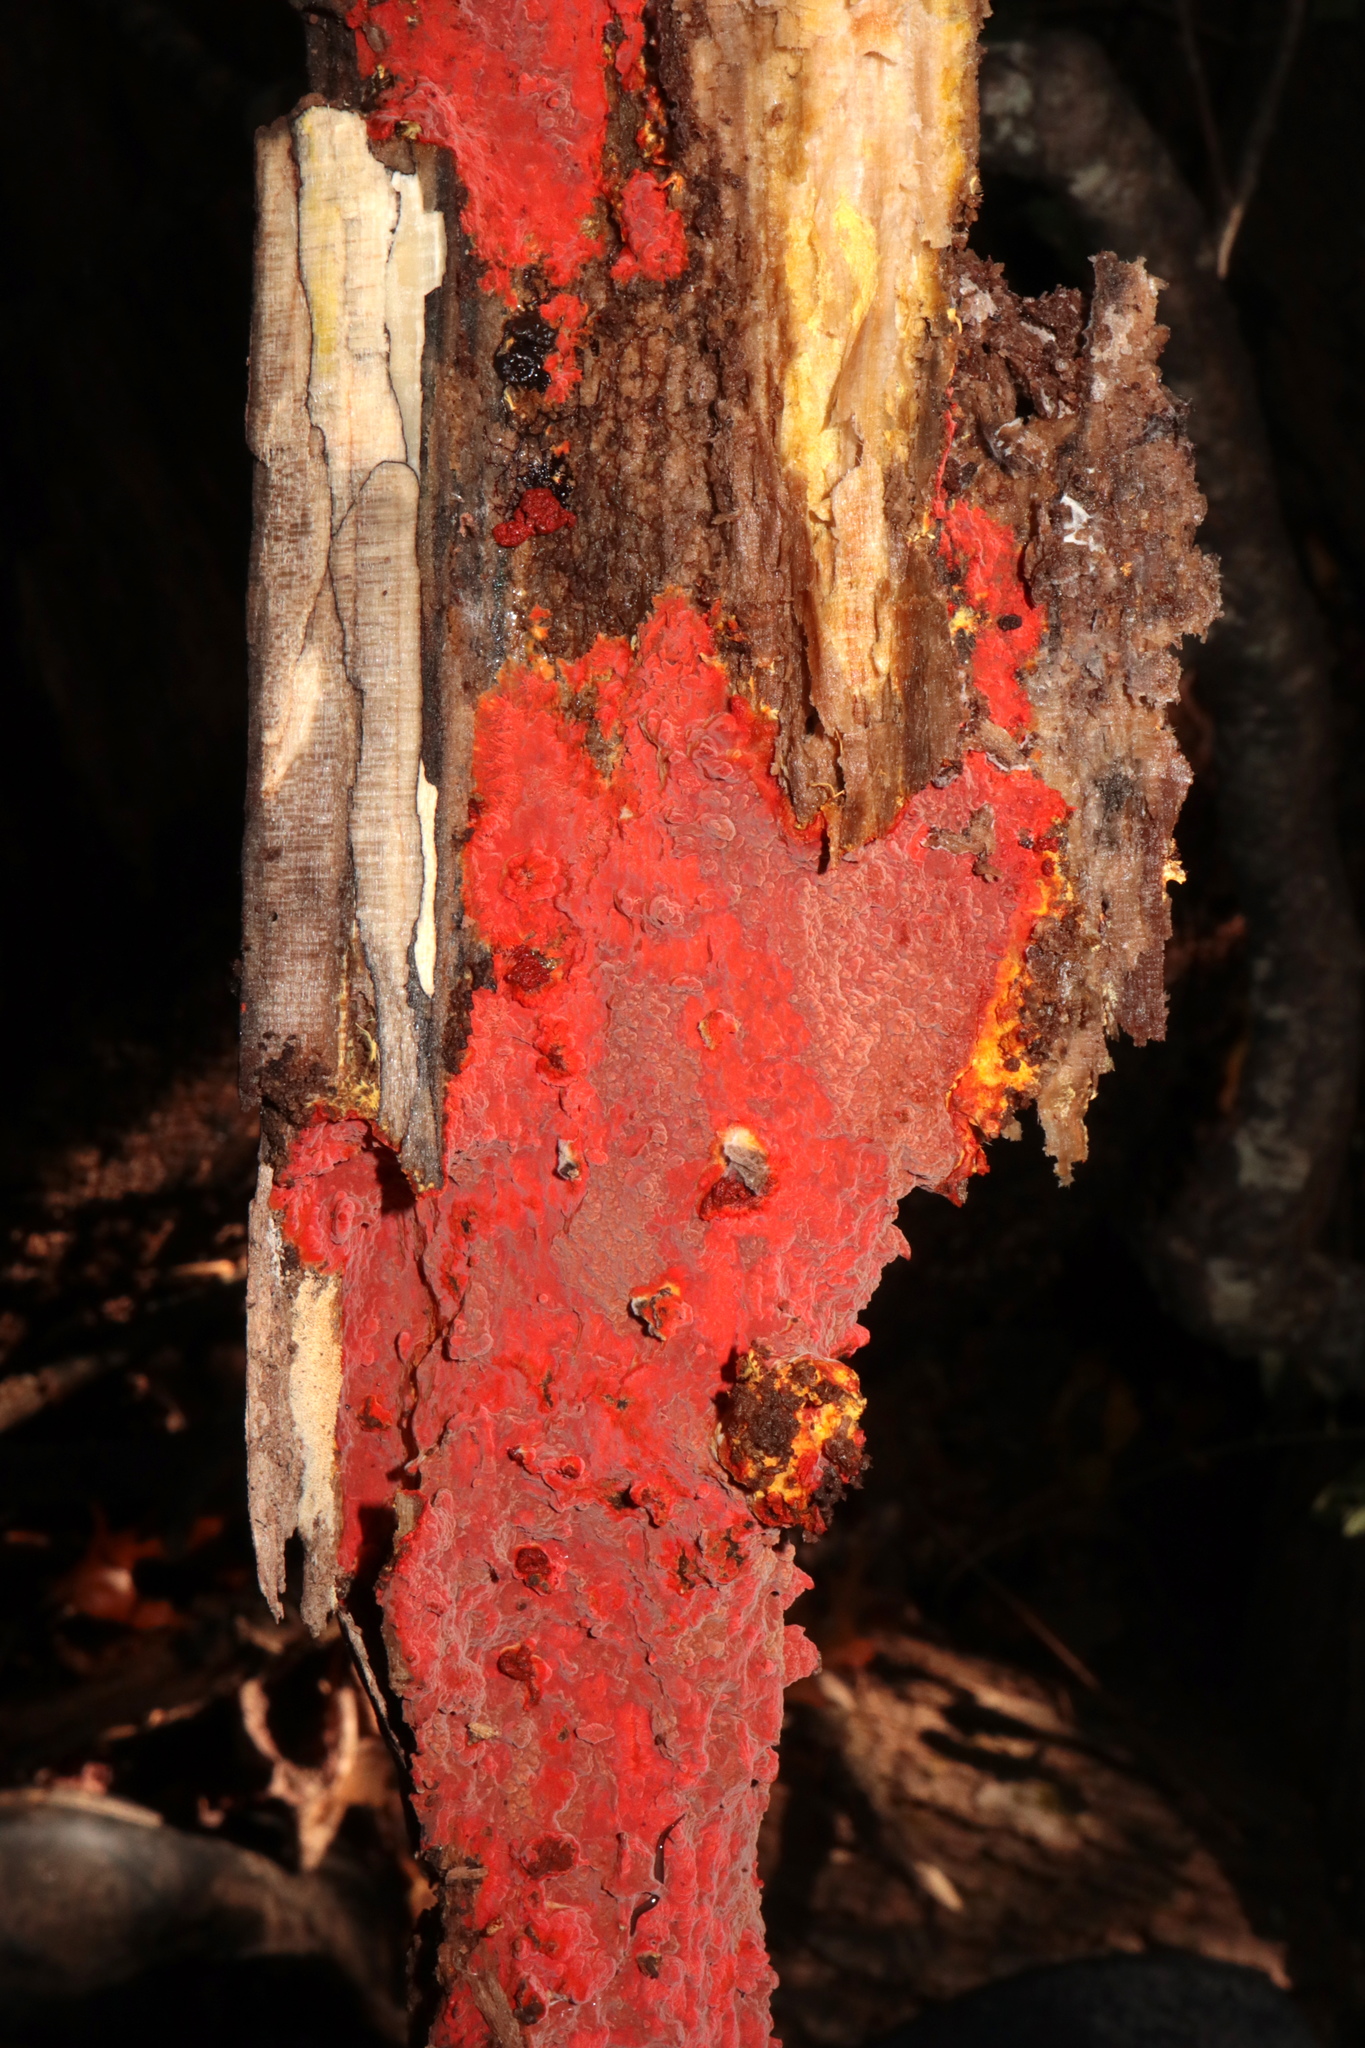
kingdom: Fungi
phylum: Basidiomycota
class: Agaricomycetes
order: Polyporales
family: Meruliaceae
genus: Phlebia
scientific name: Phlebia coccineofulva
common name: Scarlet waxcrust
